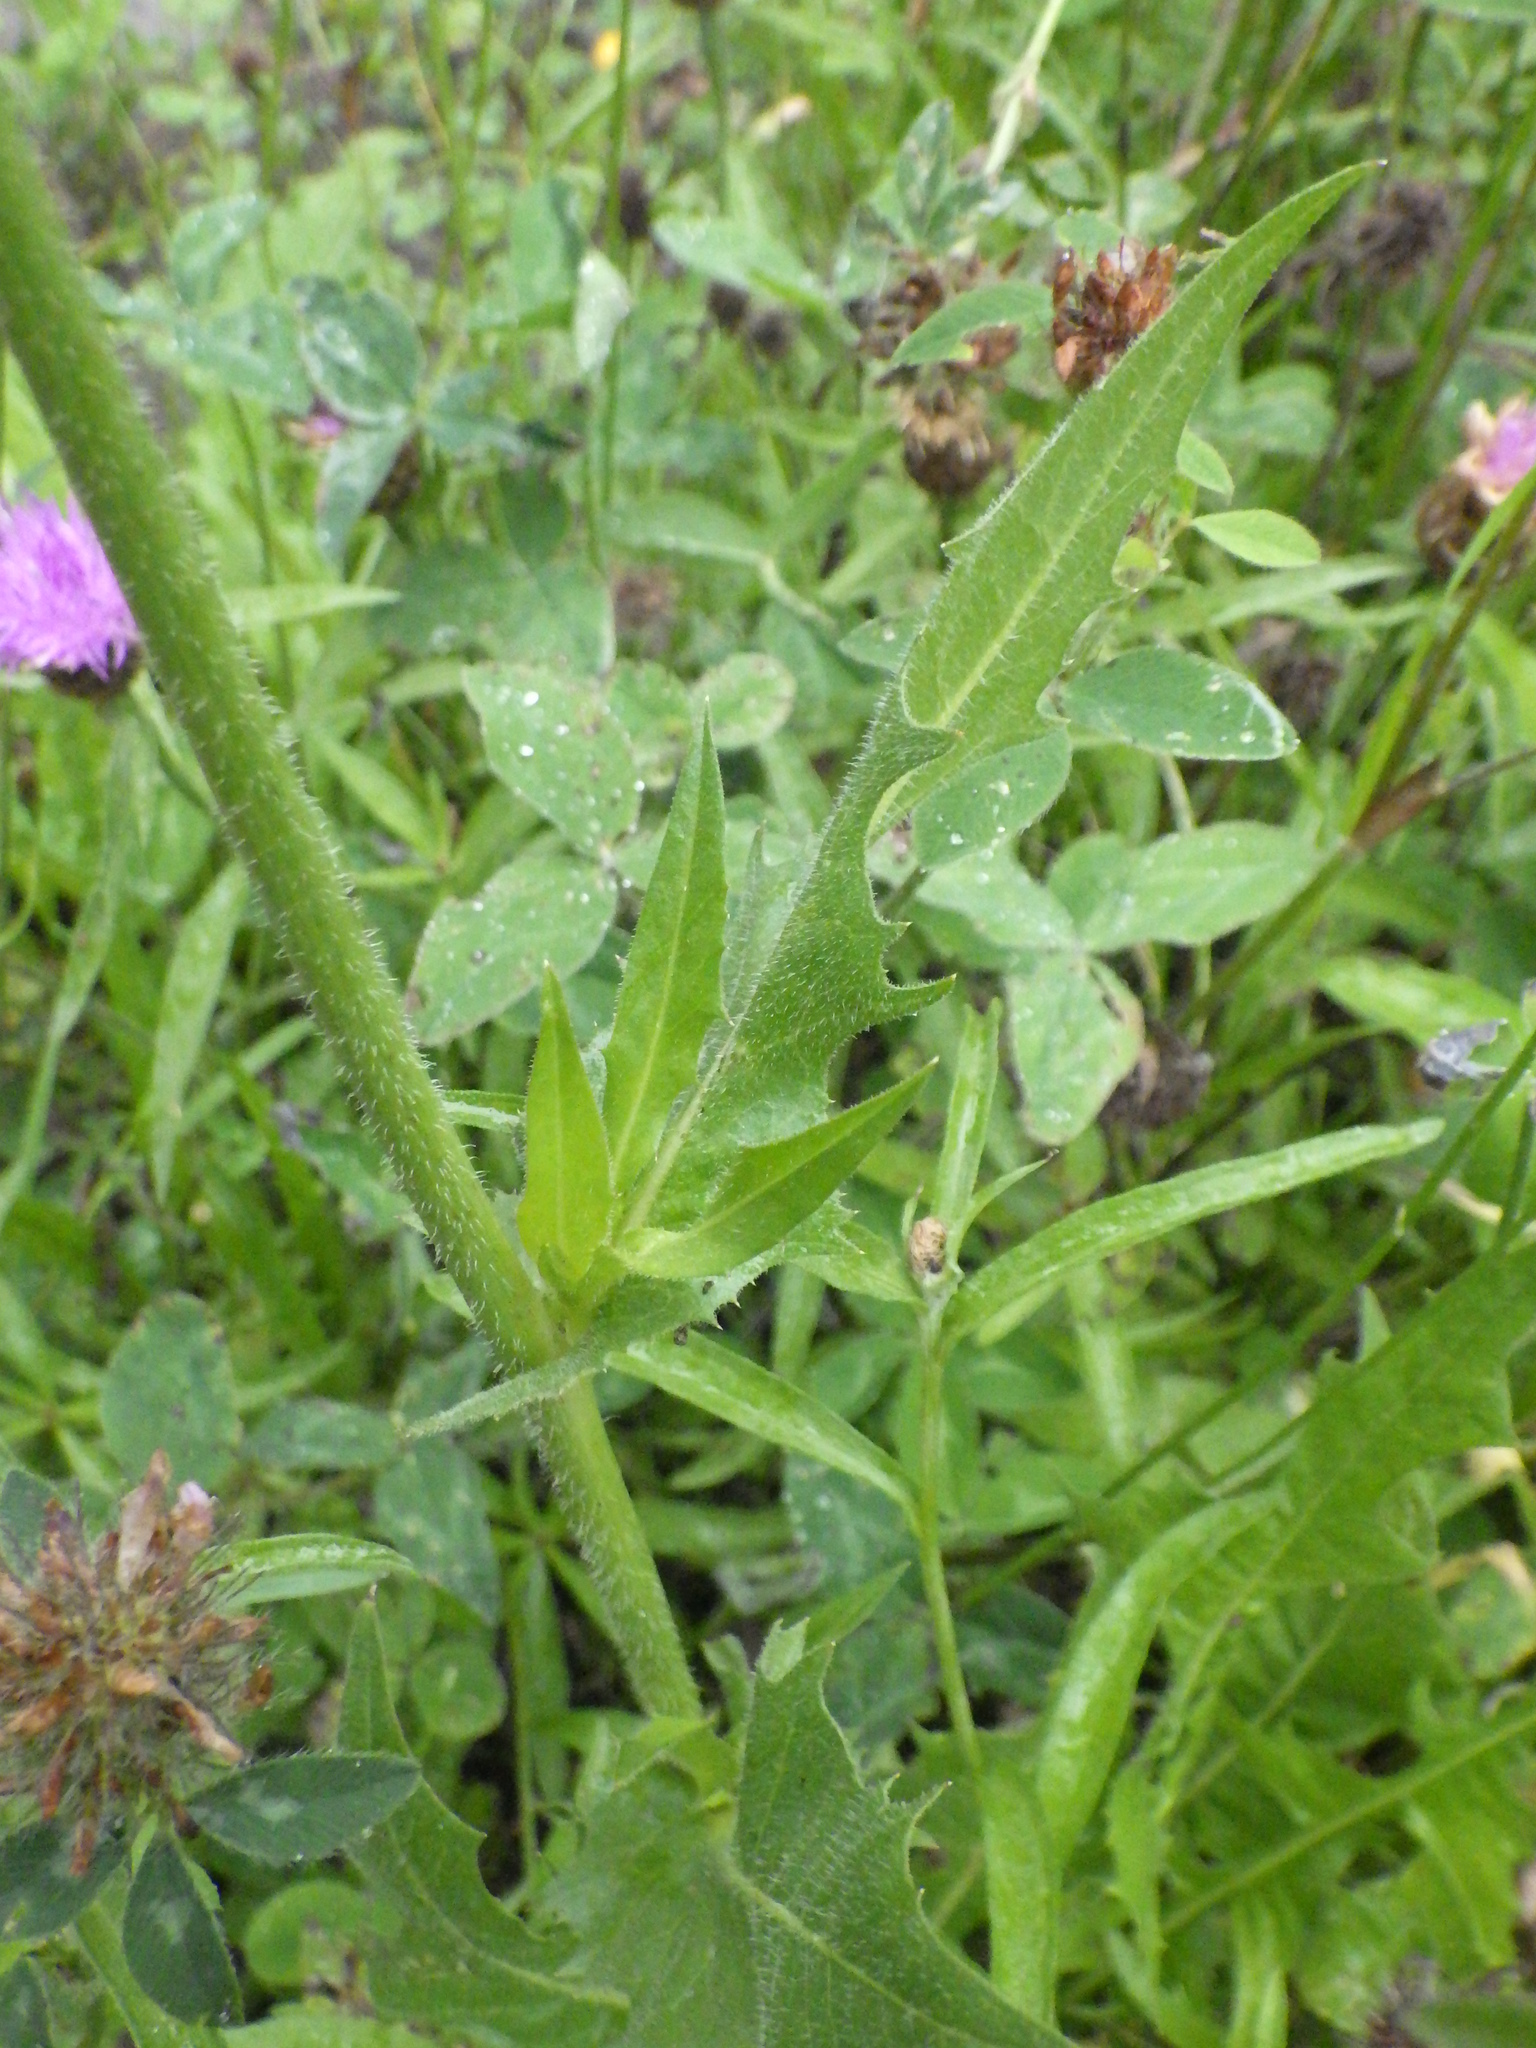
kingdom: Plantae
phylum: Tracheophyta
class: Magnoliopsida
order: Asterales
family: Asteraceae
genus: Cichorium
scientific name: Cichorium intybus
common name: Chicory
